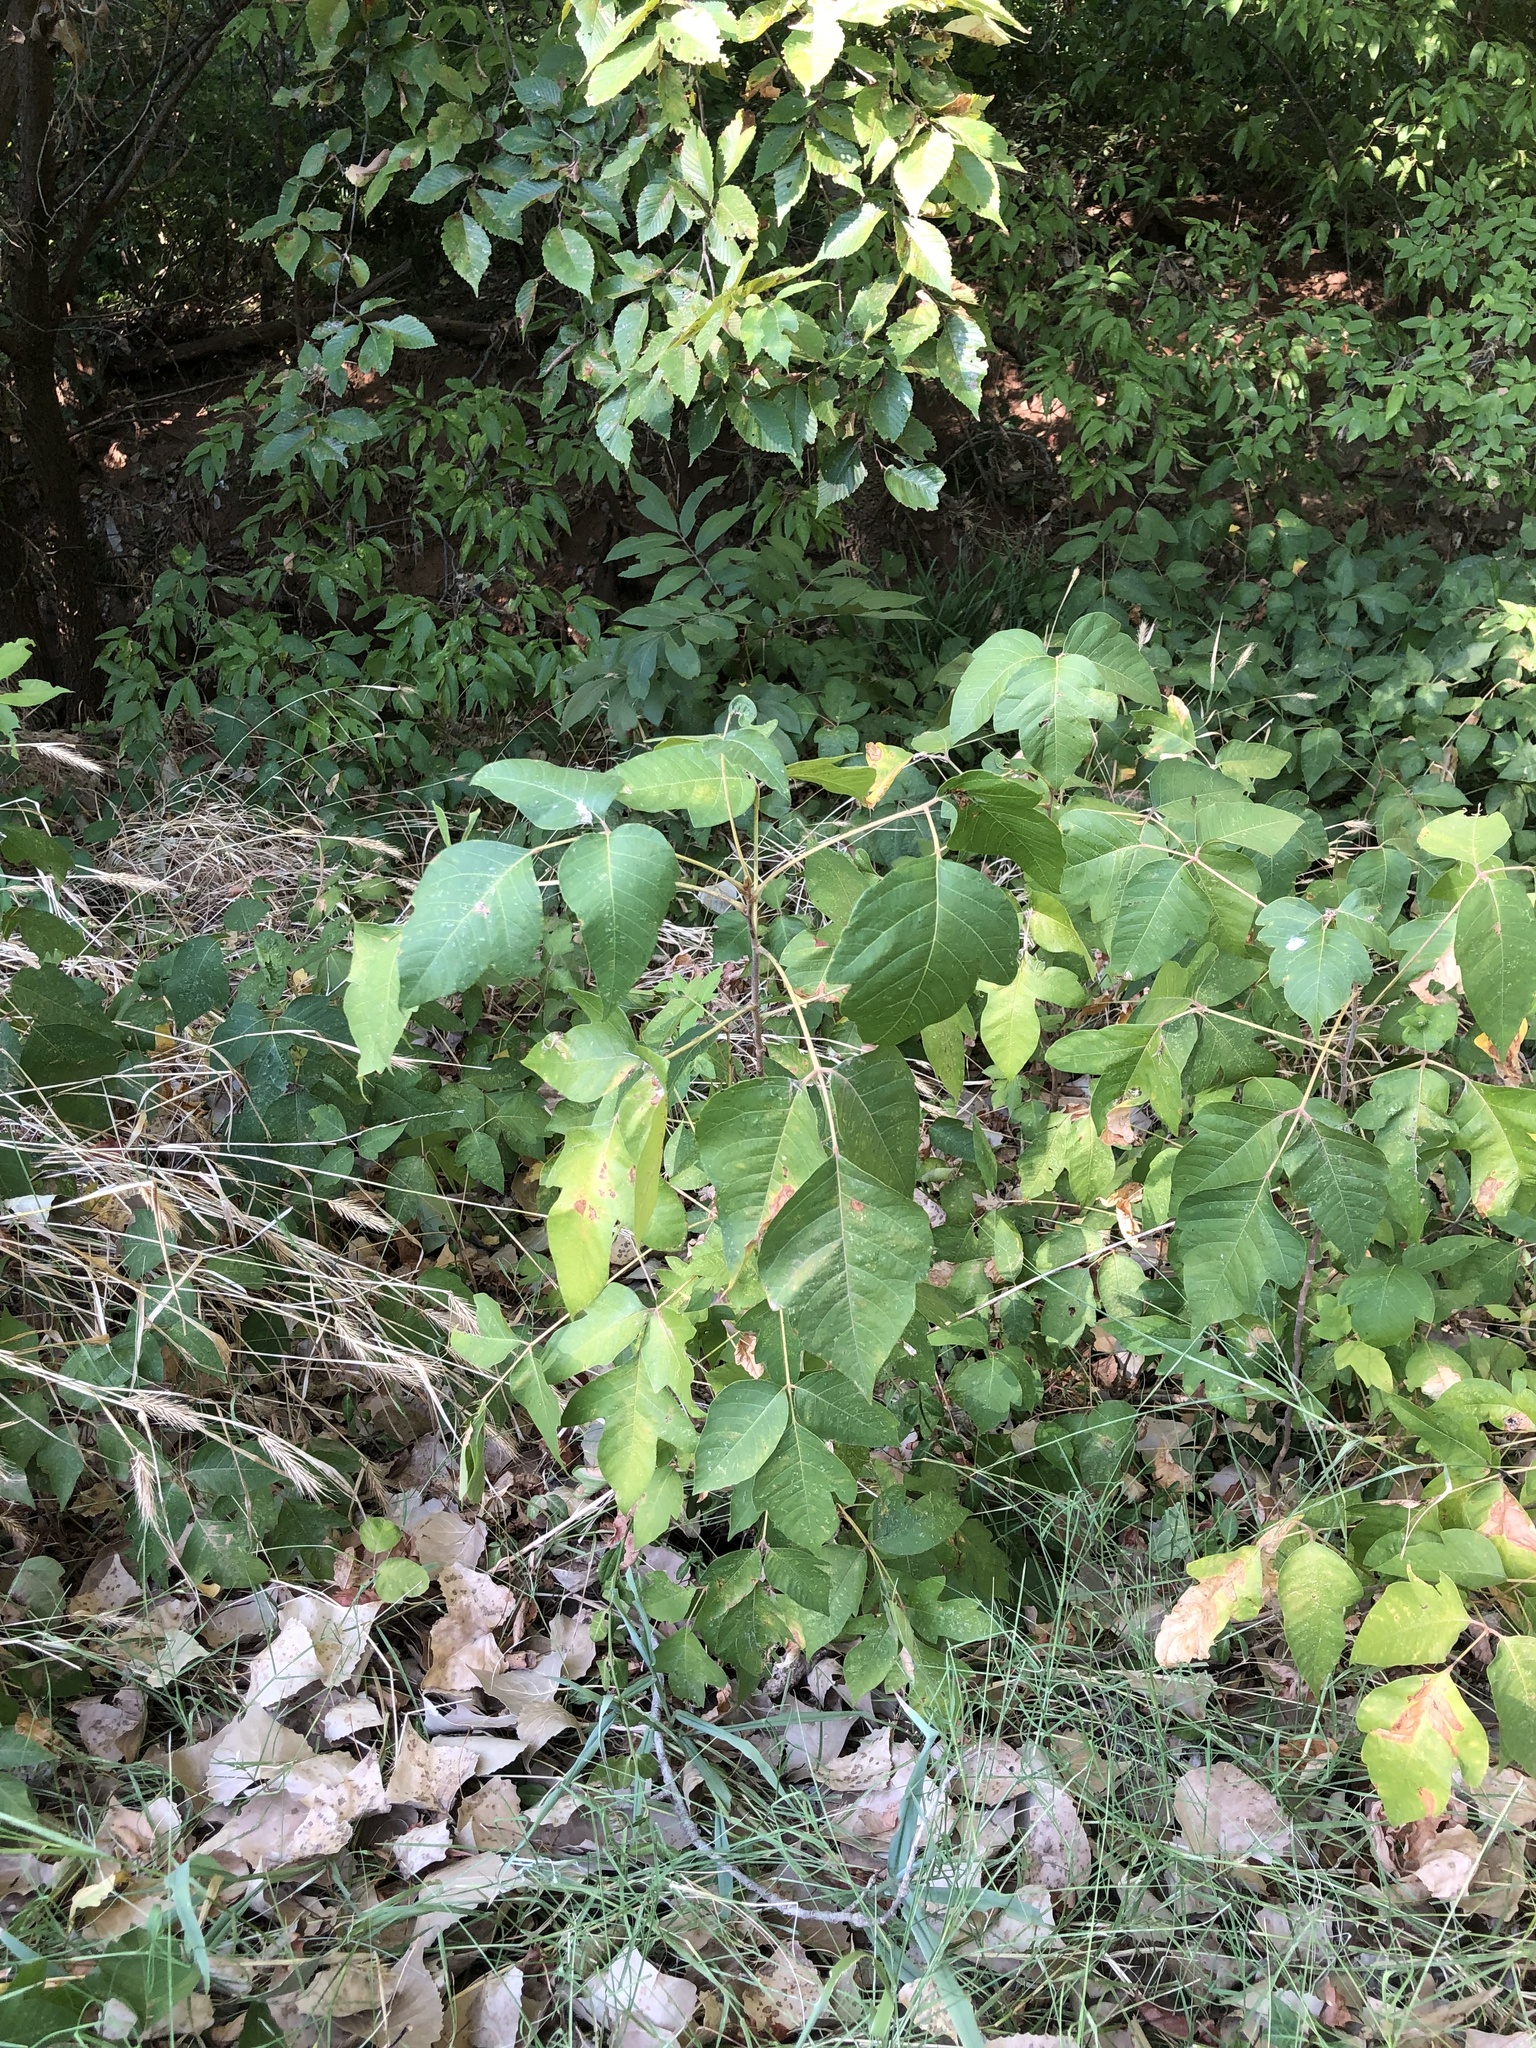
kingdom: Plantae
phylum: Tracheophyta
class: Magnoliopsida
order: Sapindales
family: Anacardiaceae
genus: Toxicodendron
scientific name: Toxicodendron radicans
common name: Poison ivy
